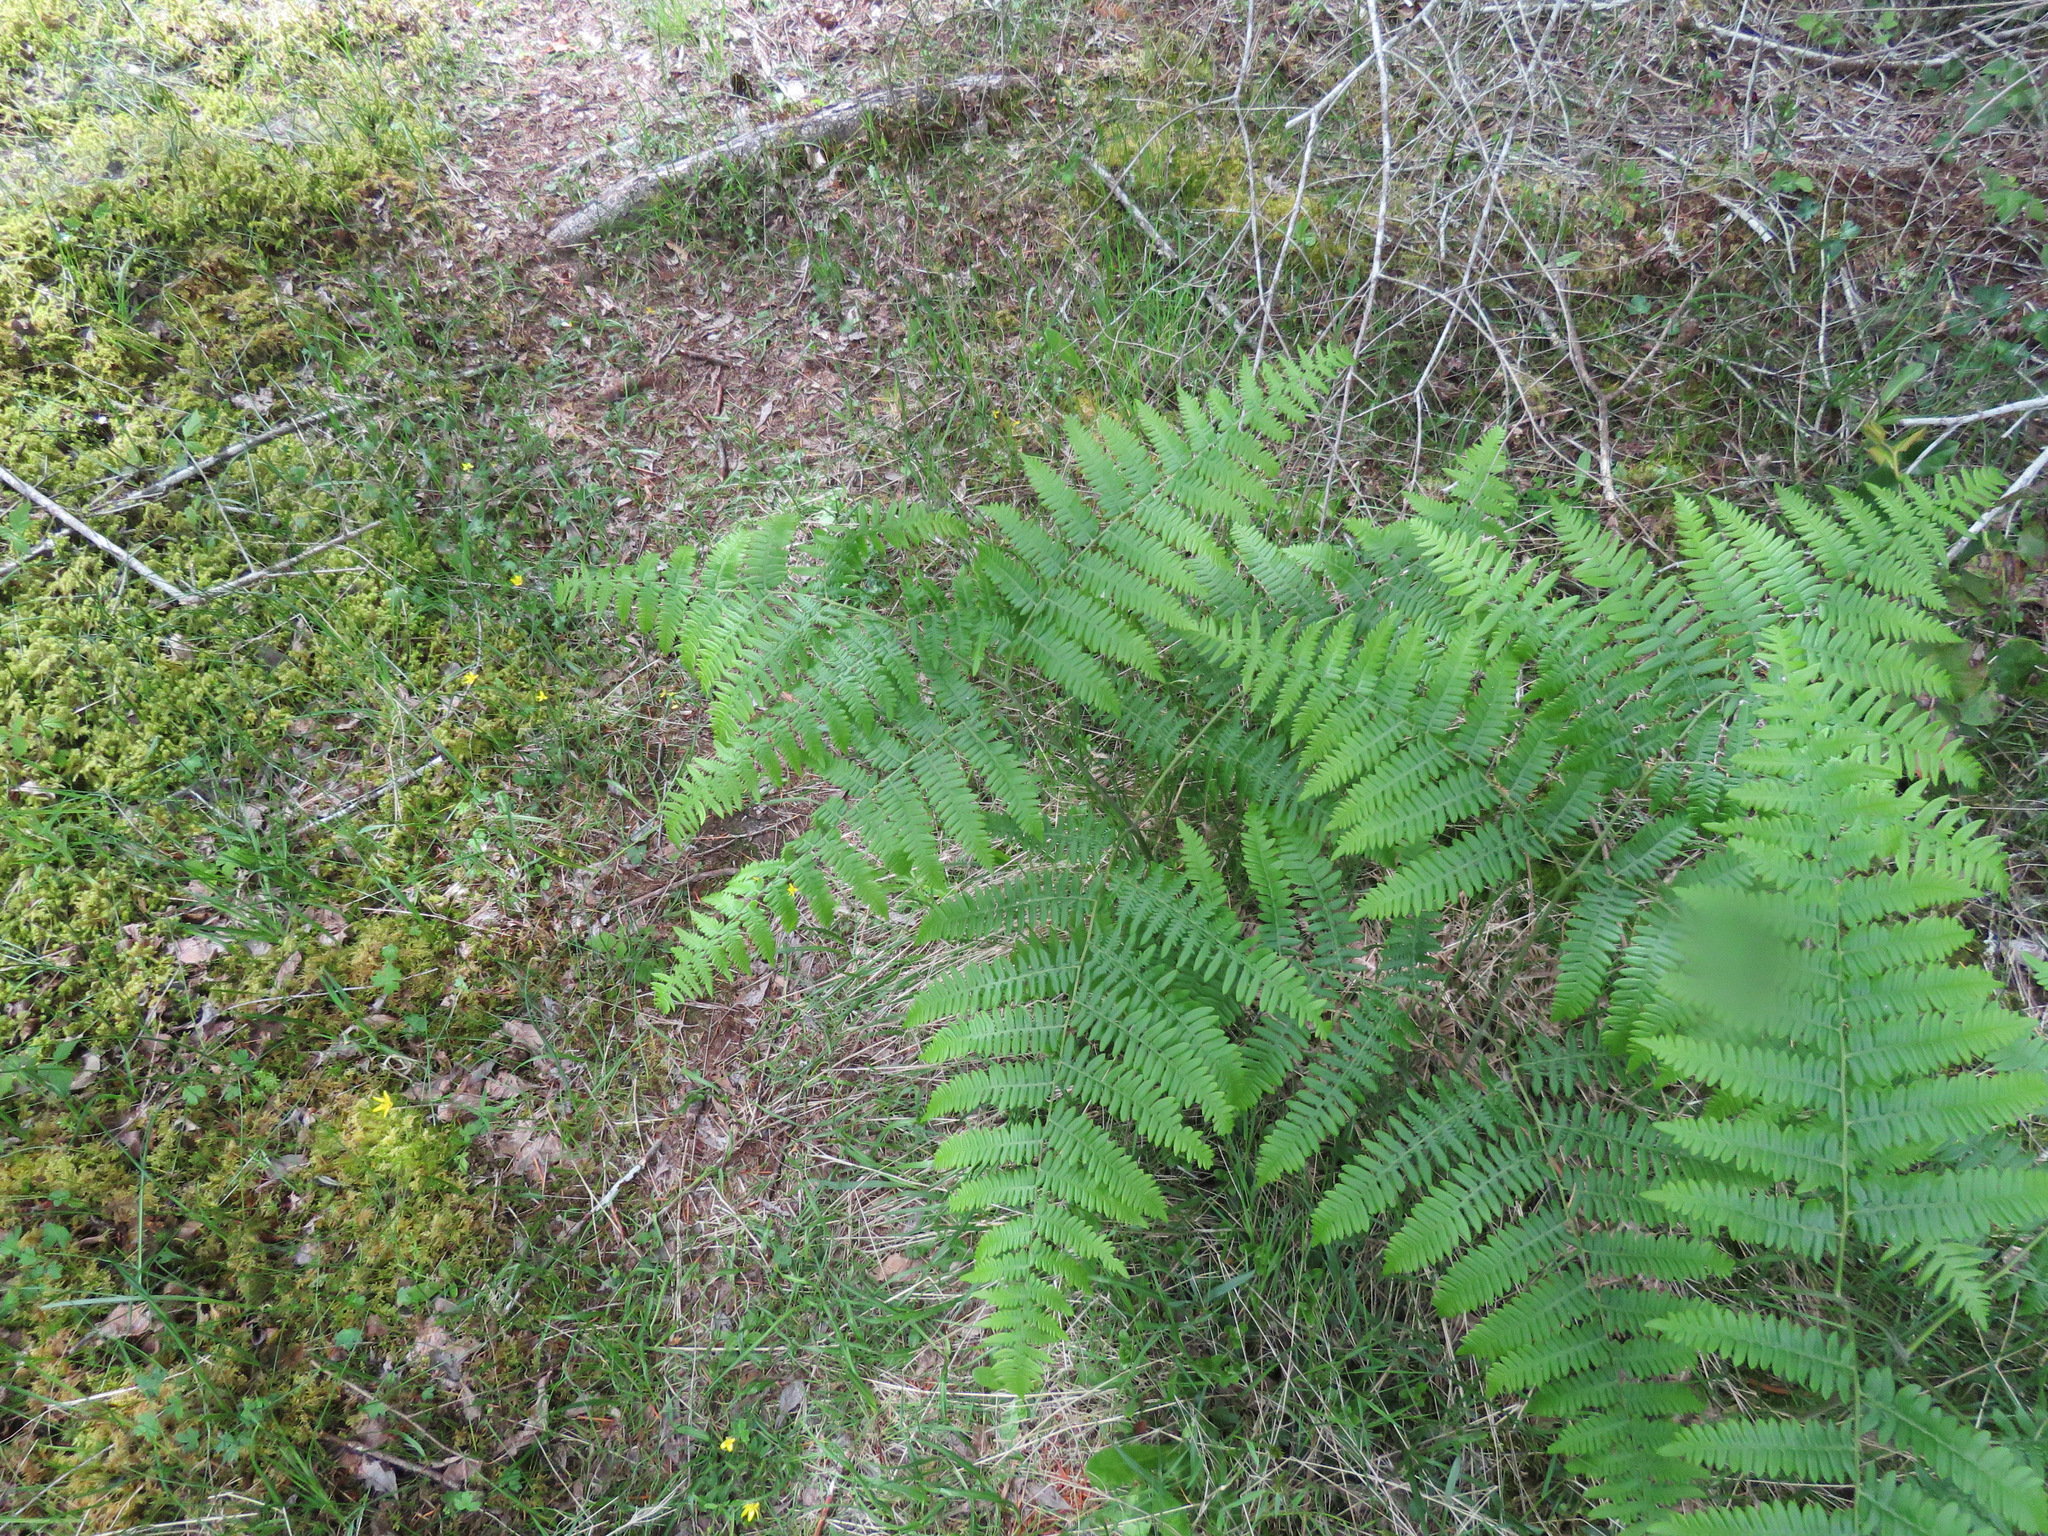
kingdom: Plantae
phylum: Tracheophyta
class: Polypodiopsida
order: Polypodiales
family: Dennstaedtiaceae
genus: Pteridium
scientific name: Pteridium aquilinum
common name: Bracken
